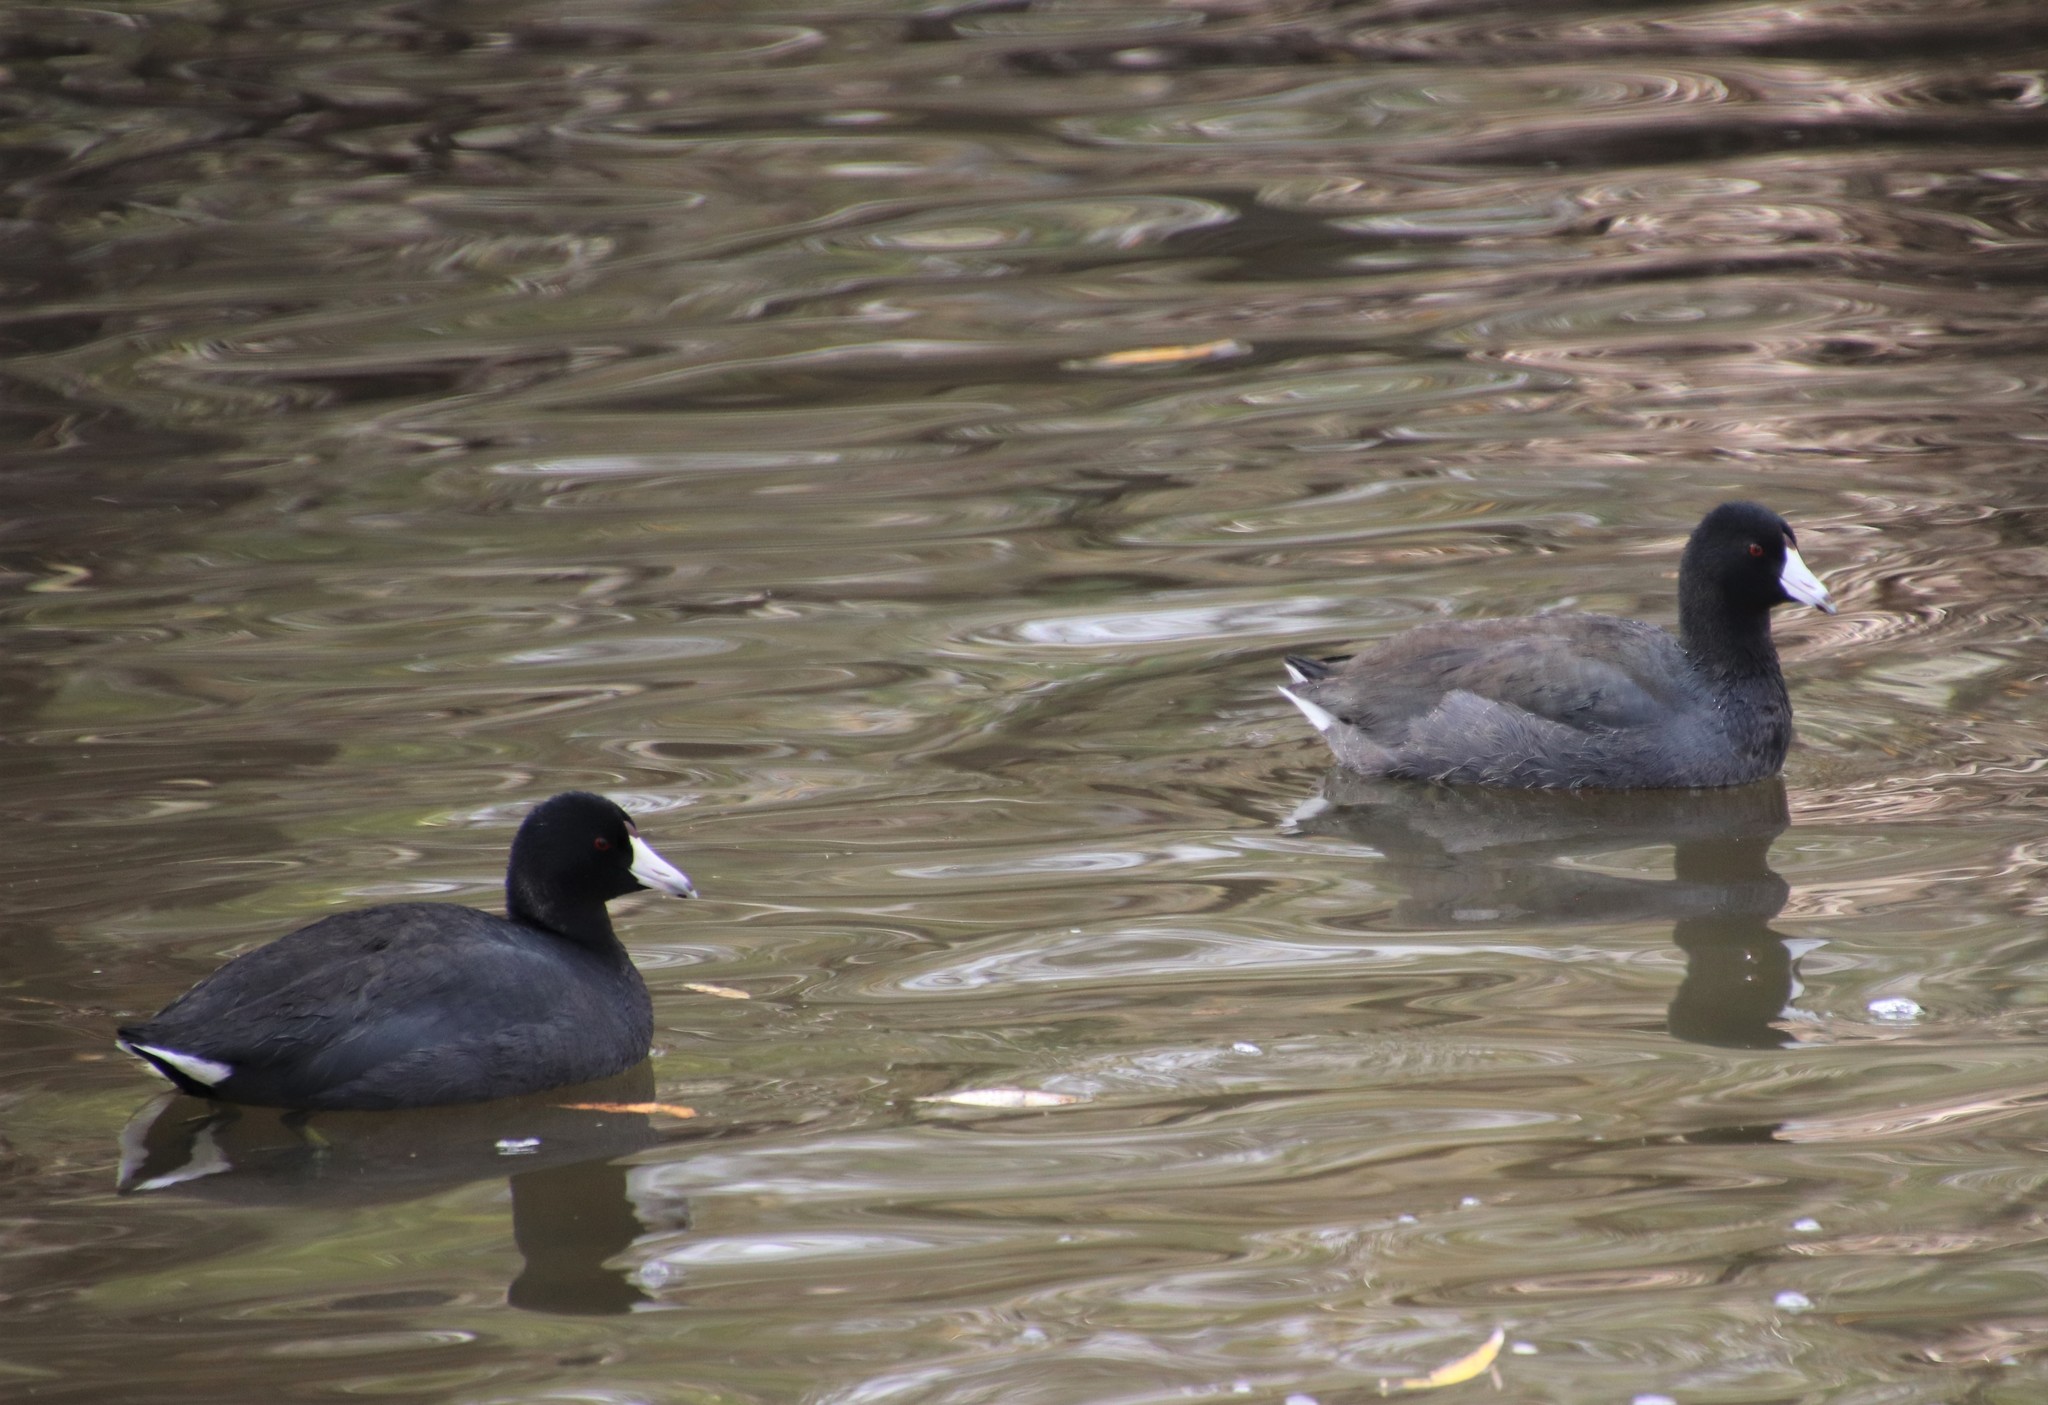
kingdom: Animalia
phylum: Chordata
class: Aves
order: Gruiformes
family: Rallidae
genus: Fulica
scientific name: Fulica americana
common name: American coot
